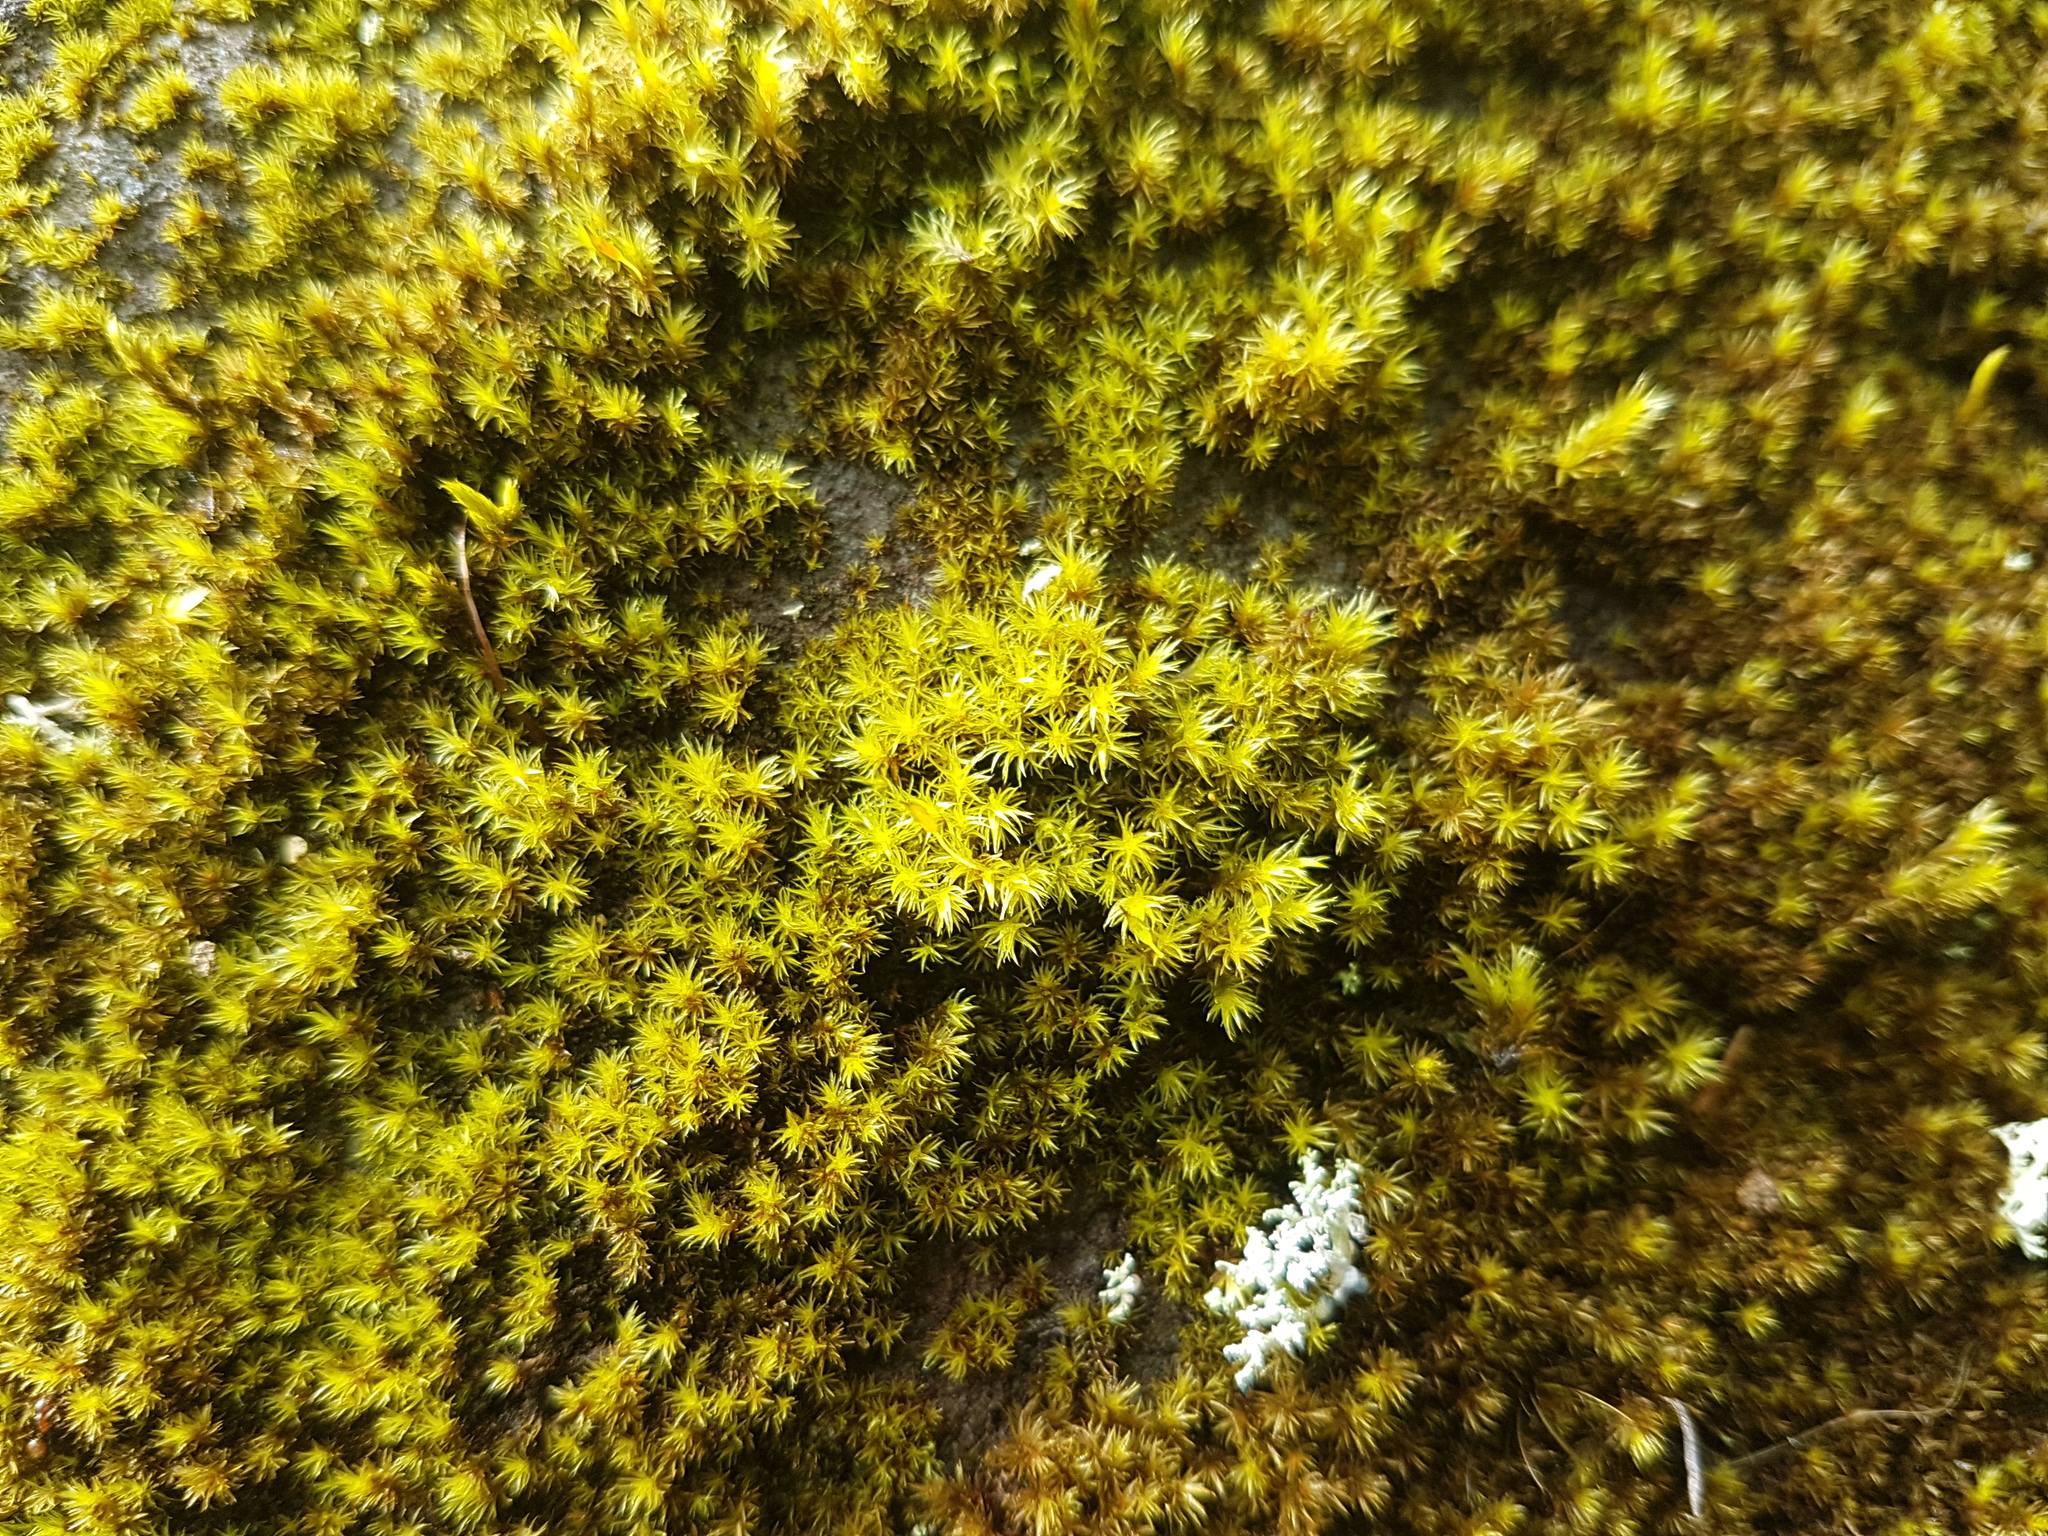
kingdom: Plantae
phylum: Bryophyta
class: Bryopsida
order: Bartramiales
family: Bartramiaceae
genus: Breutelia
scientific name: Breutelia affinis
